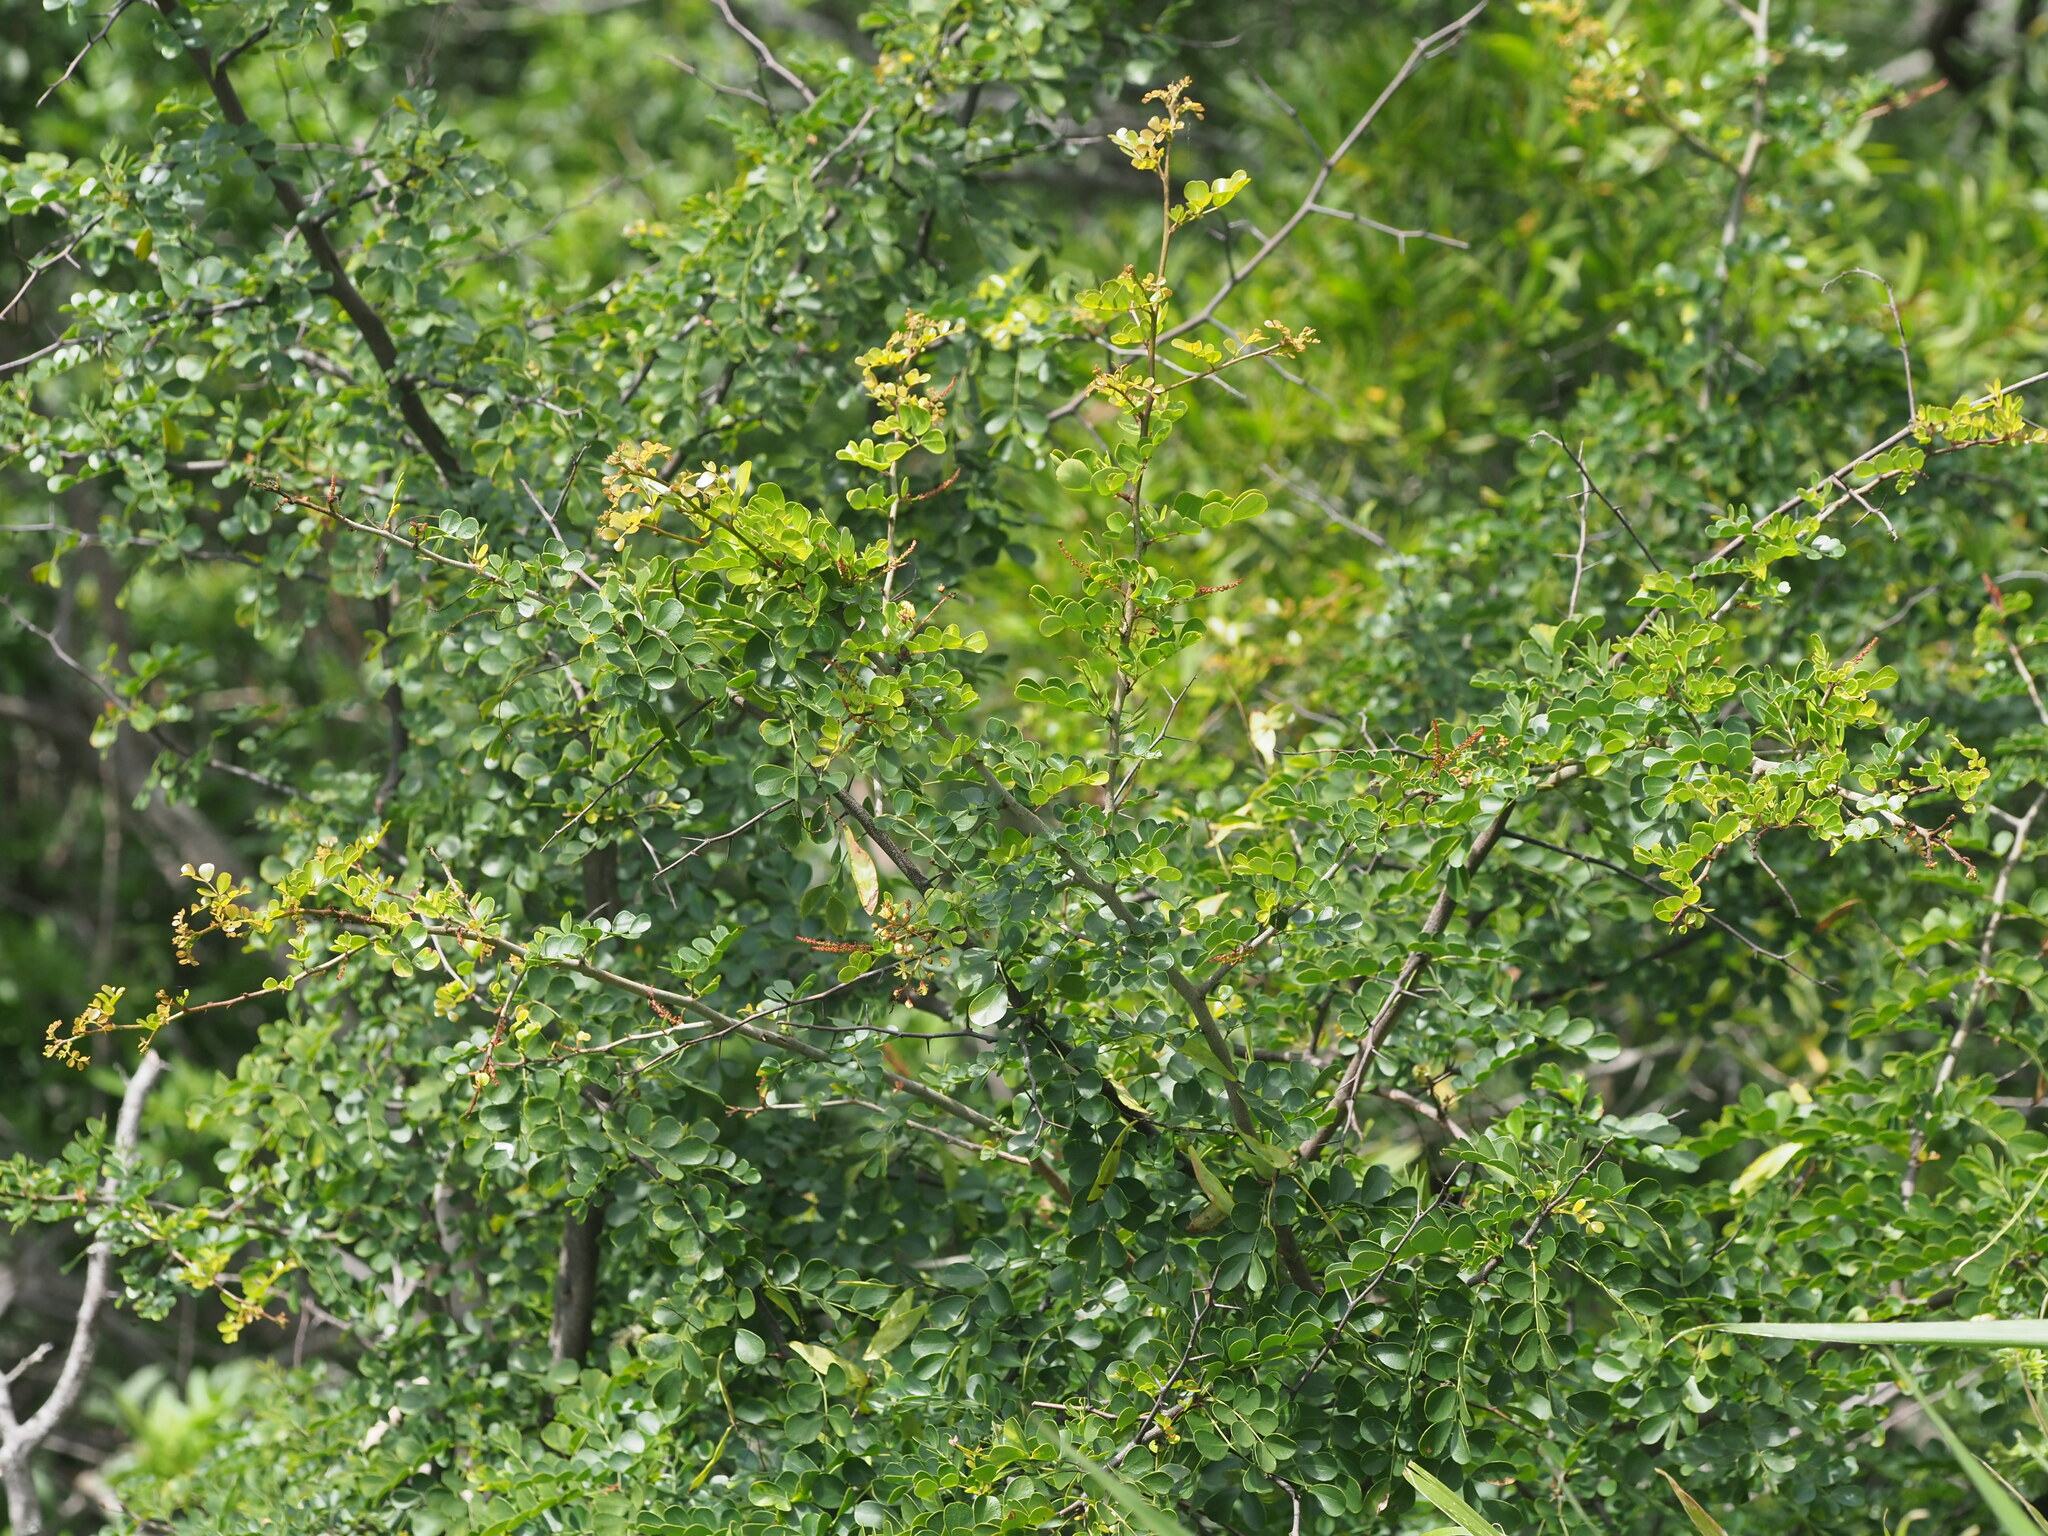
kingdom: Plantae
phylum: Tracheophyta
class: Magnoliopsida
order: Fabales
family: Fabaceae
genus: Haematoxylum
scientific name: Haematoxylum campechianum
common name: Logwood
